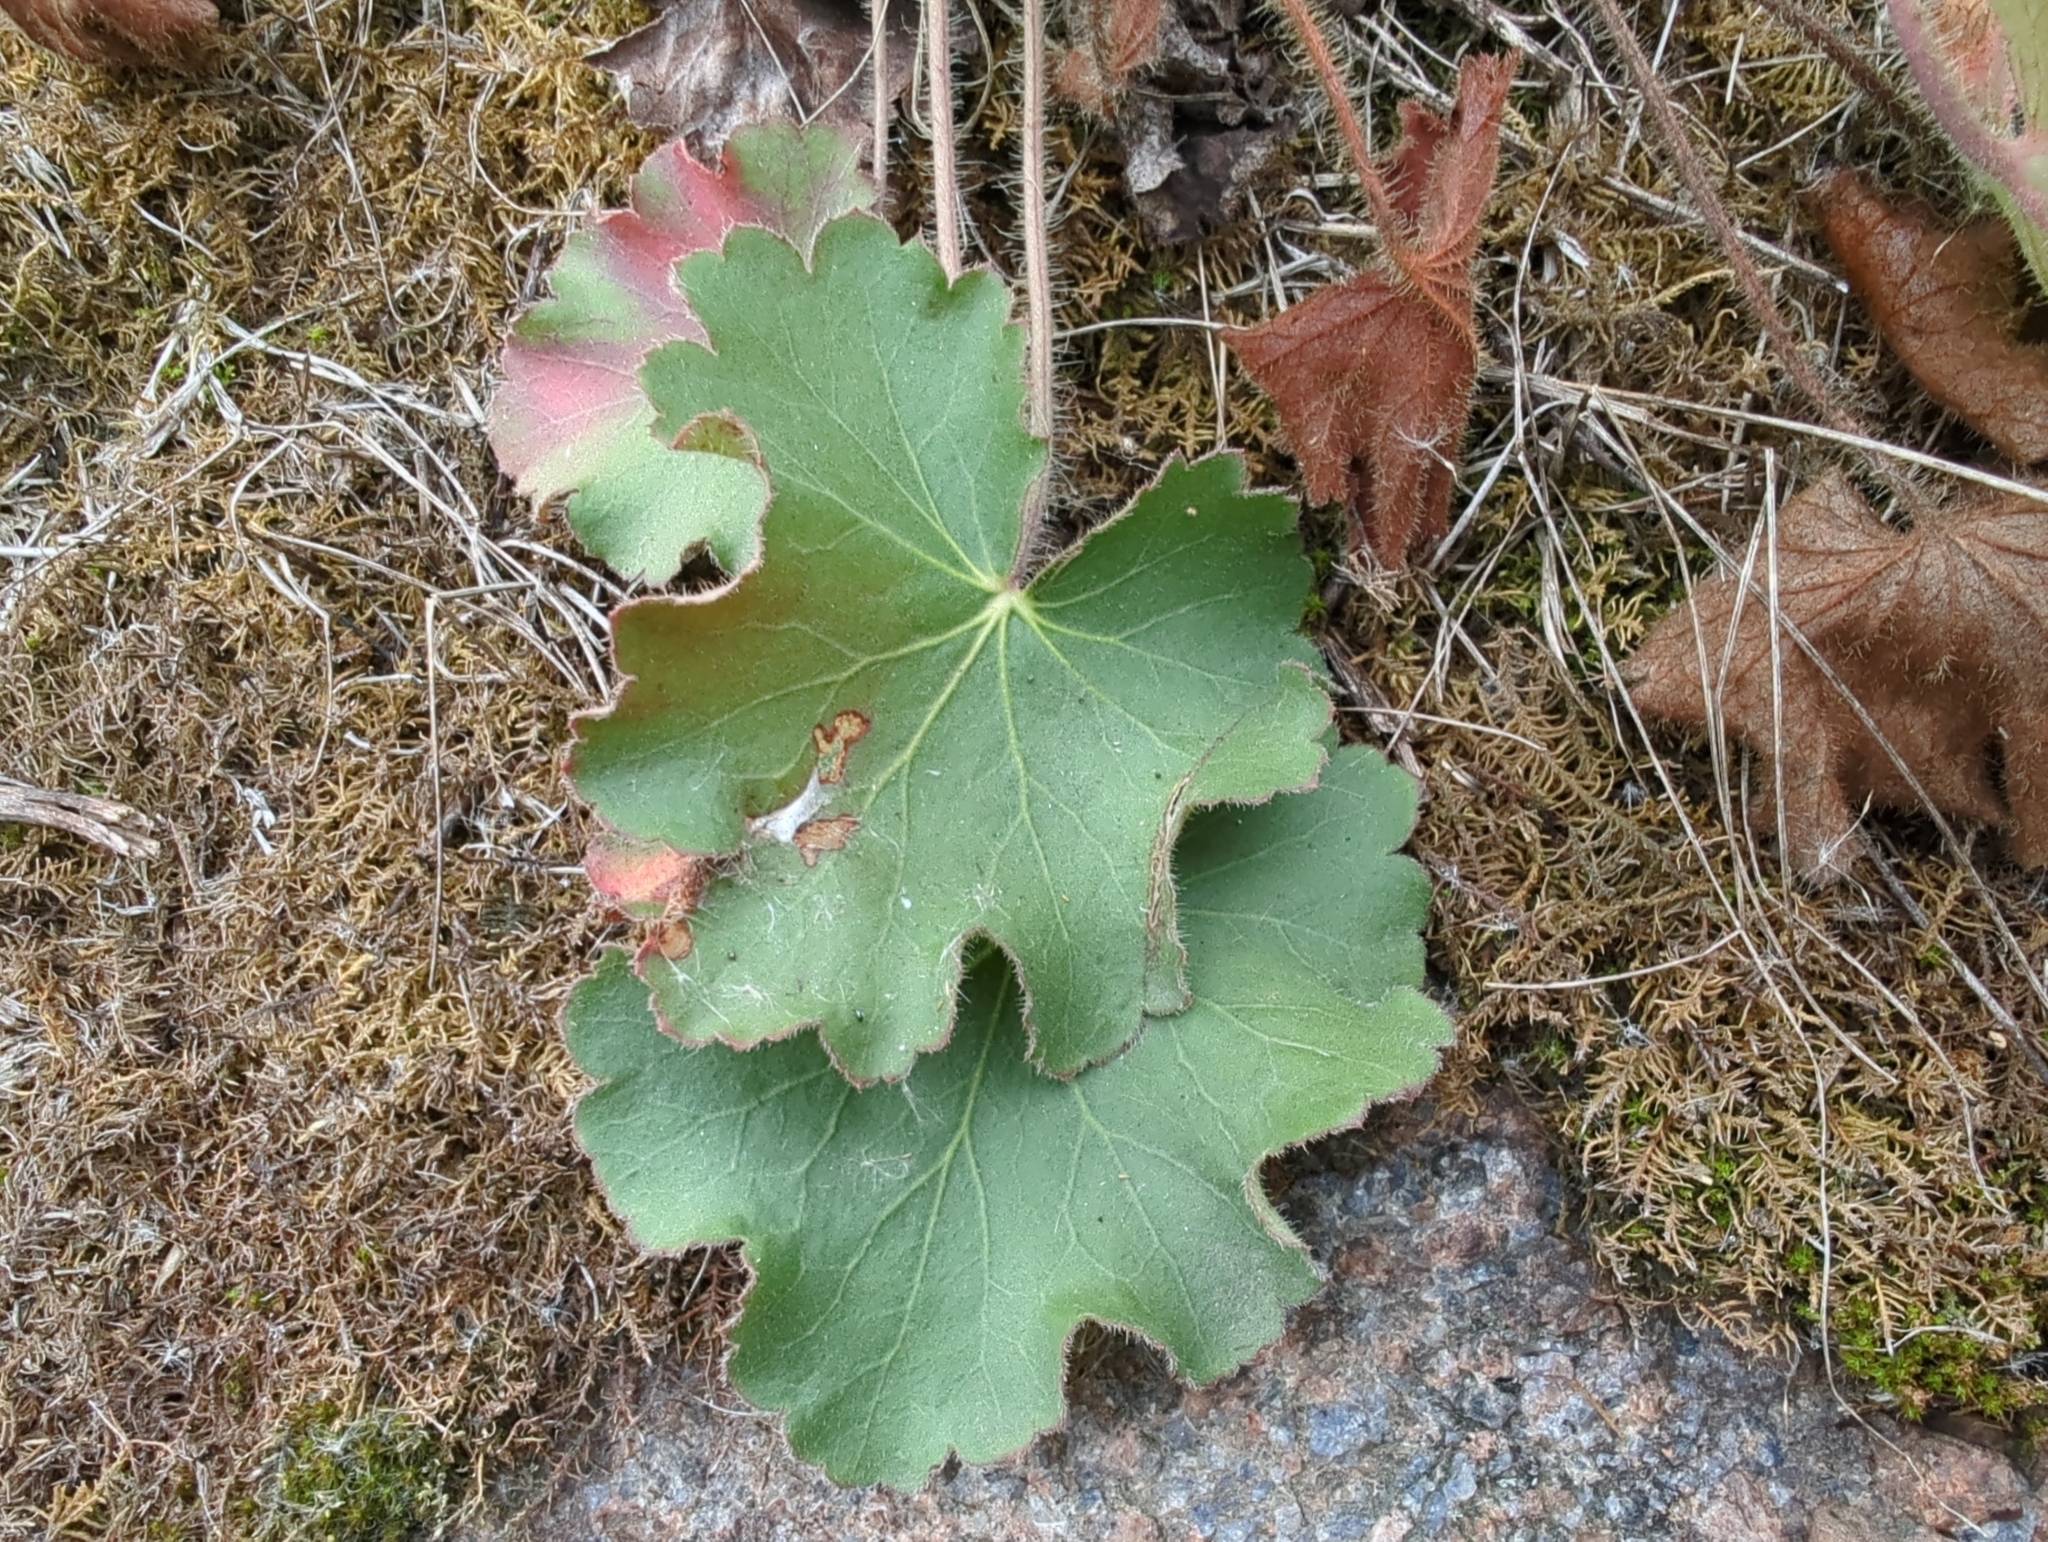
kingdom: Plantae
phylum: Tracheophyta
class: Magnoliopsida
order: Saxifragales
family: Saxifragaceae
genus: Heuchera
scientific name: Heuchera richardsonii
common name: Richardson's alumroot
